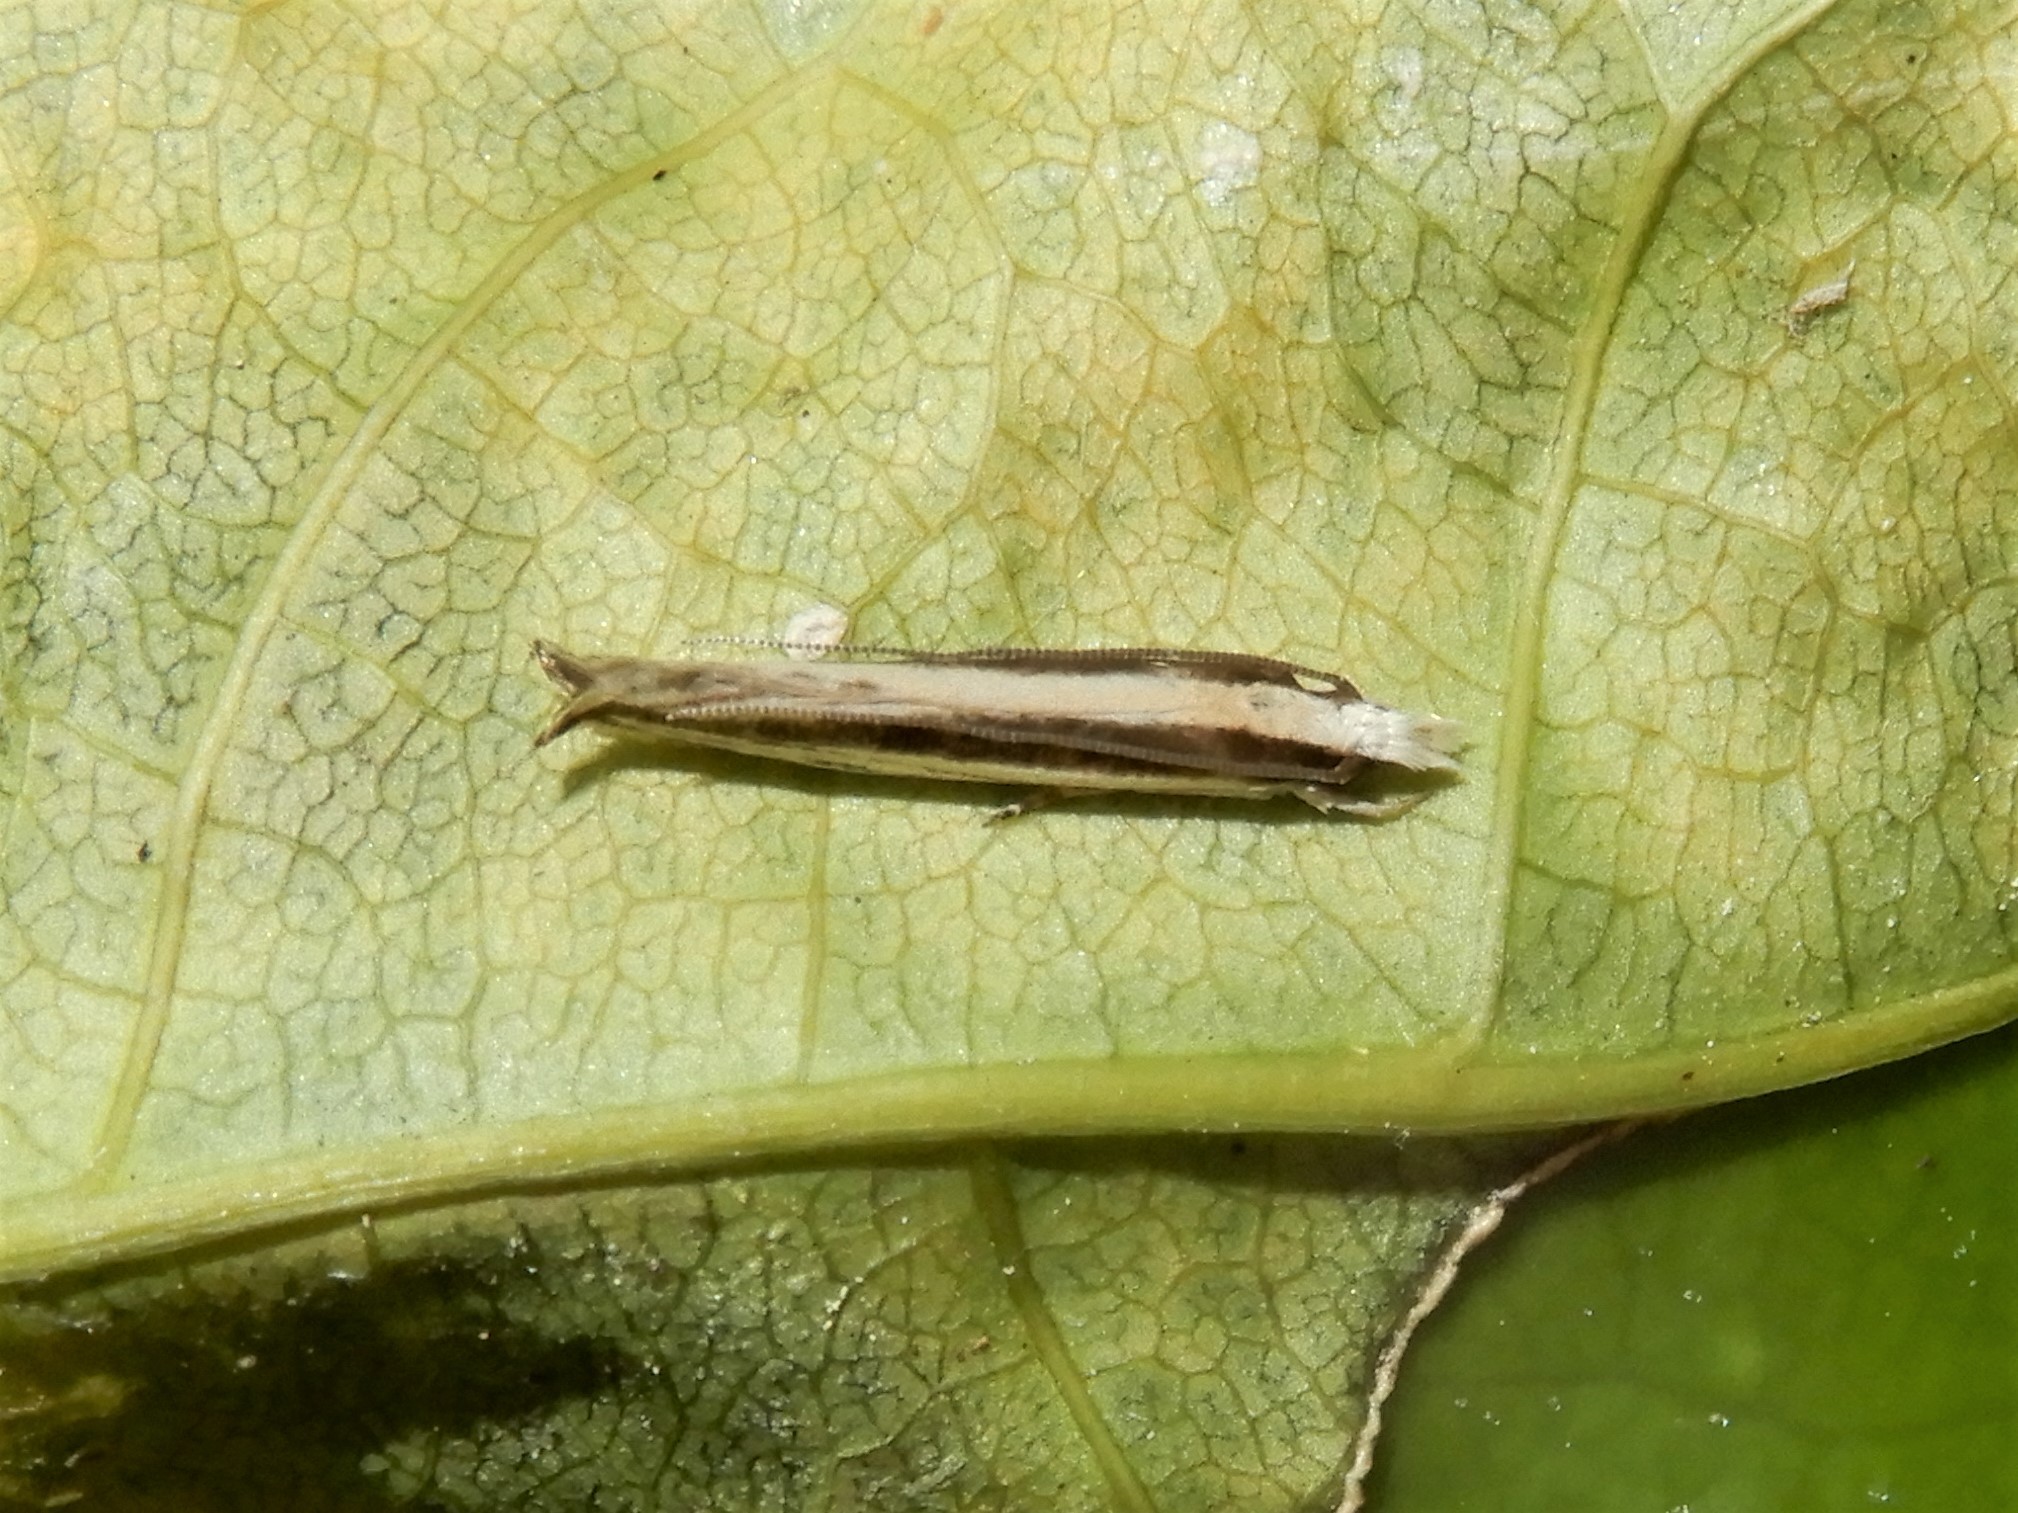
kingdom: Animalia
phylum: Arthropoda
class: Insecta
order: Lepidoptera
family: Tineidae
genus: Erechthias
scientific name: Erechthias stilbella
